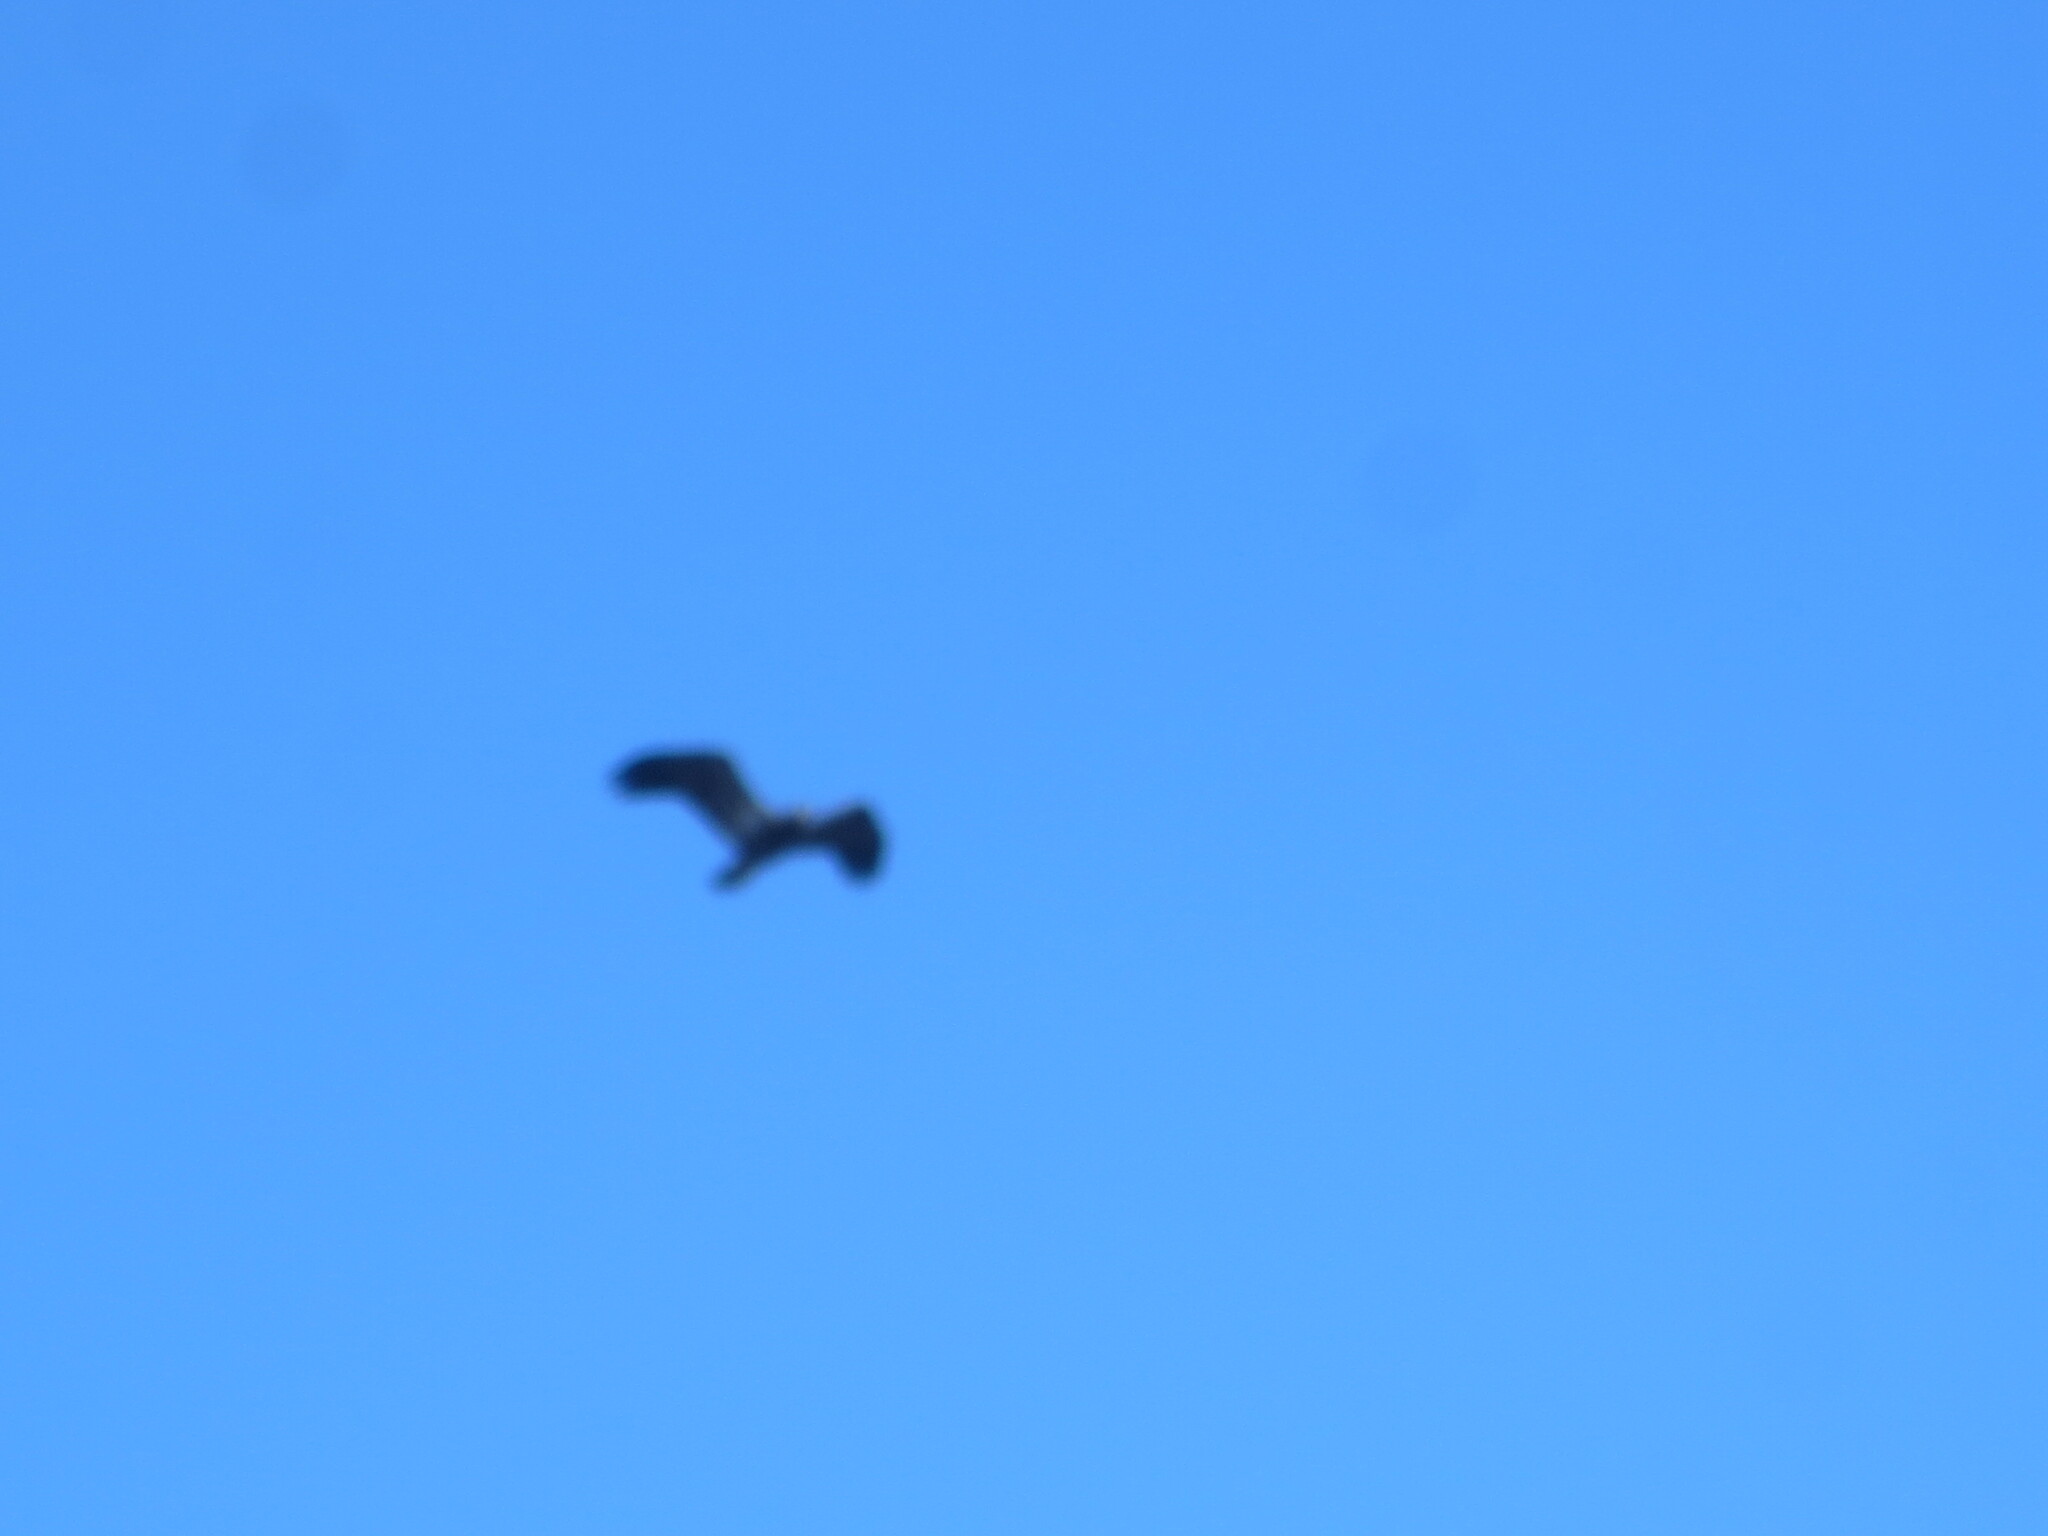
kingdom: Animalia
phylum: Chordata
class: Aves
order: Accipitriformes
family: Accipitridae
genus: Haliaeetus
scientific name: Haliaeetus leucocephalus
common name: Bald eagle
